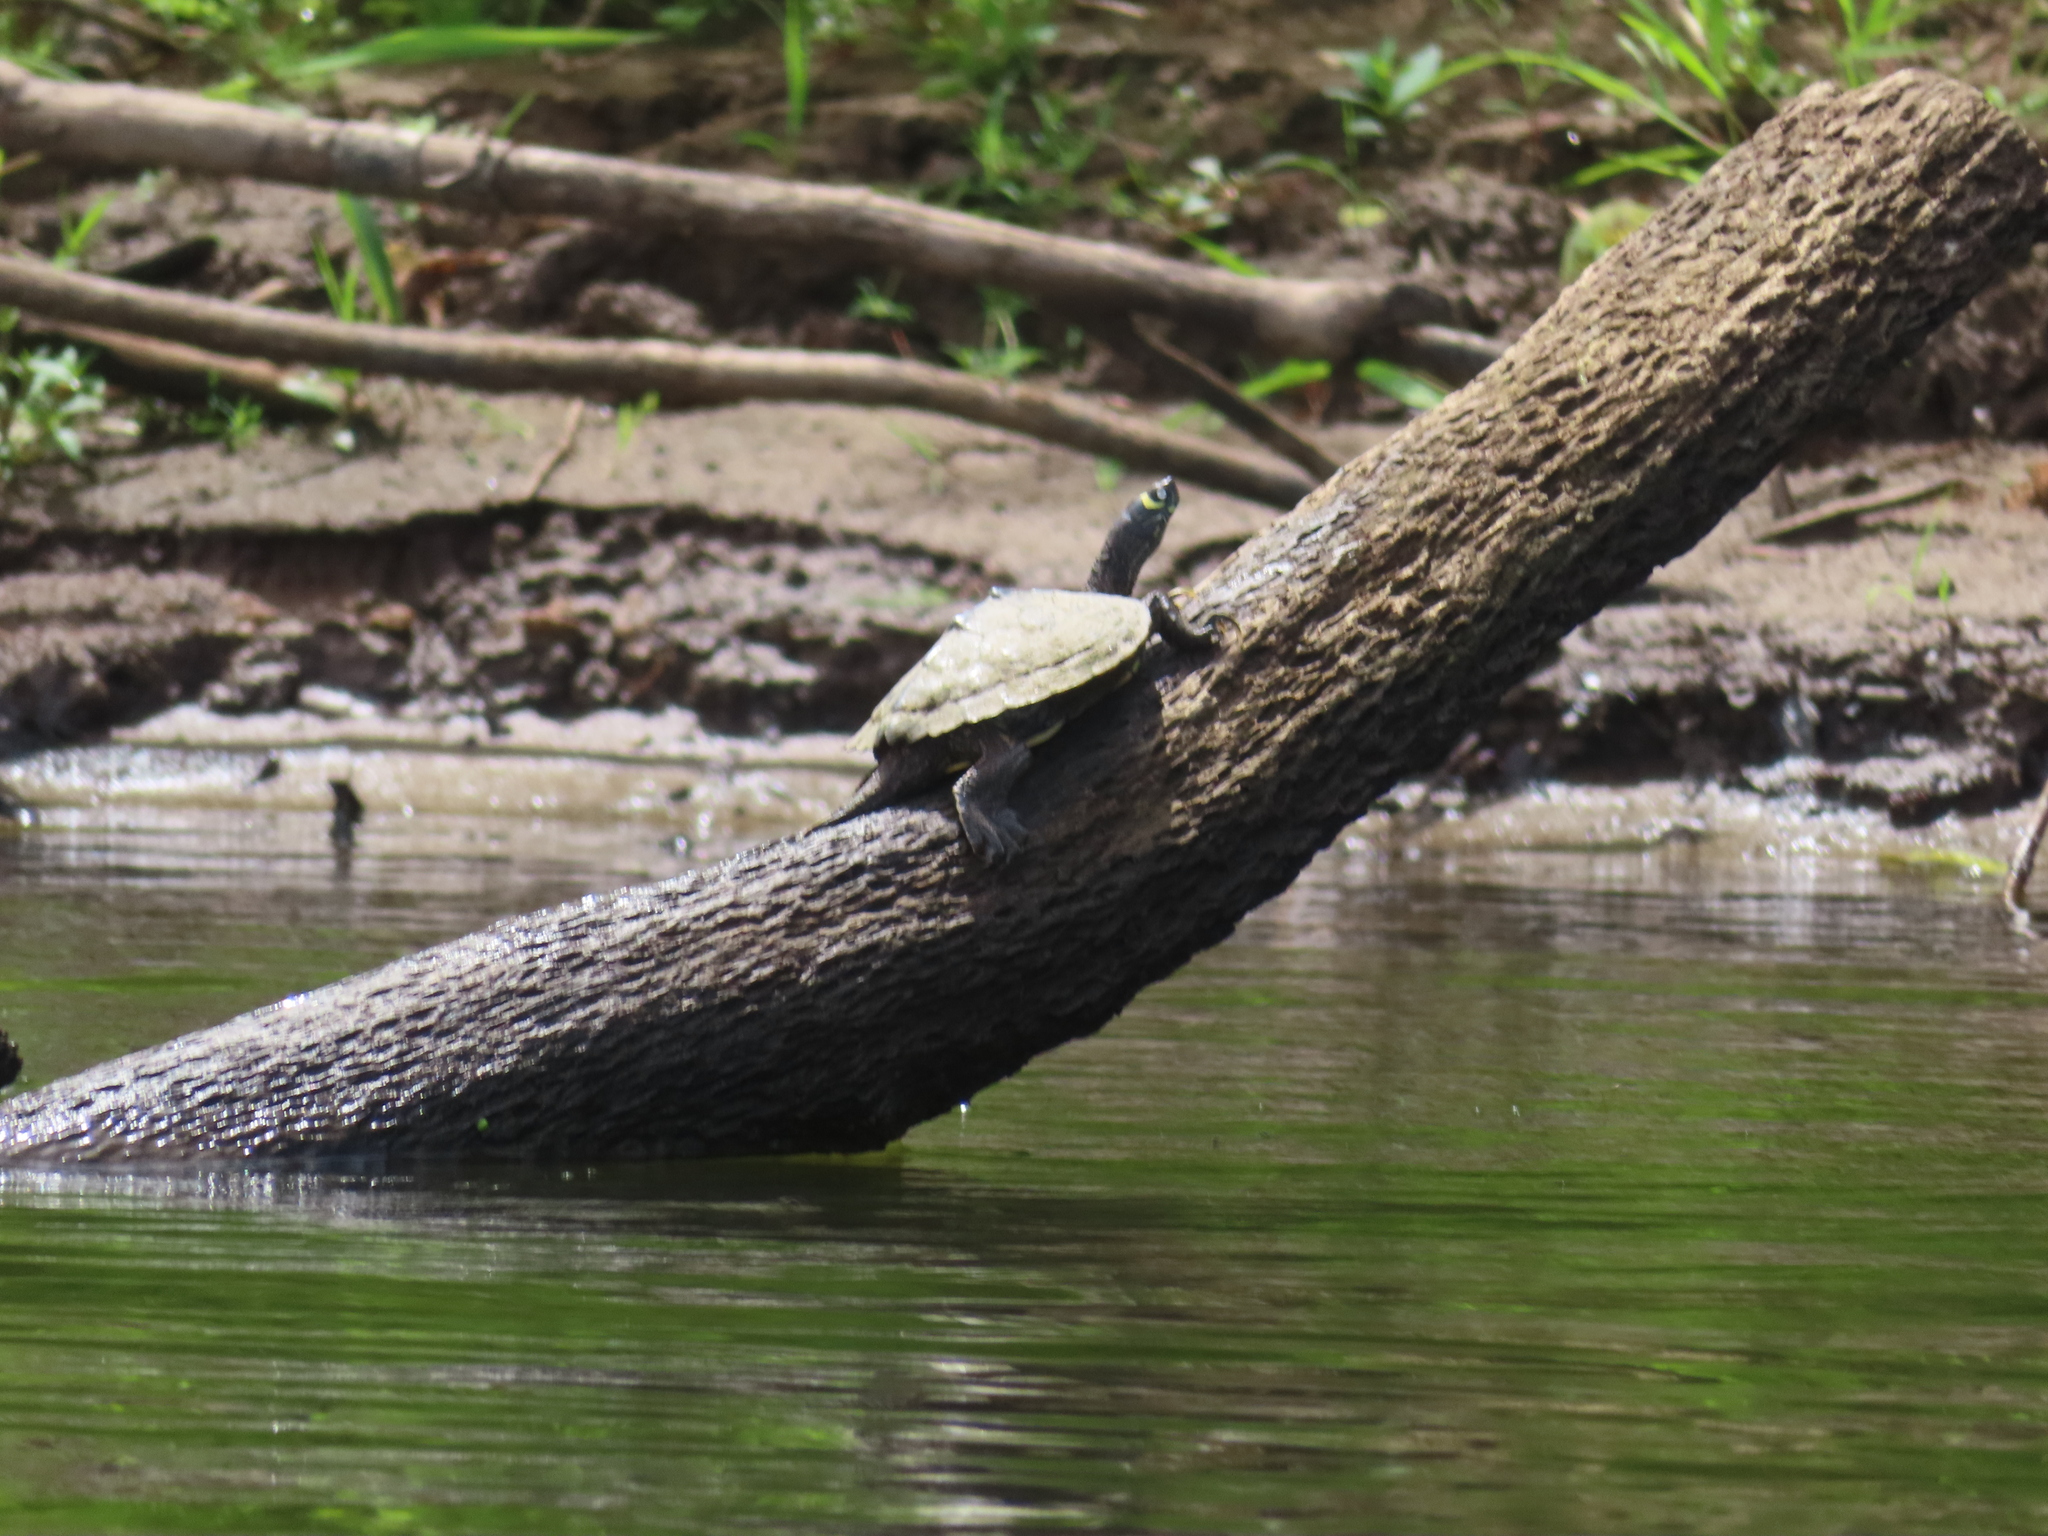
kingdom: Animalia
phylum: Chordata
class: Testudines
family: Emydidae
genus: Graptemys
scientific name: Graptemys ouachitensis
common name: Ouachita map turtle
